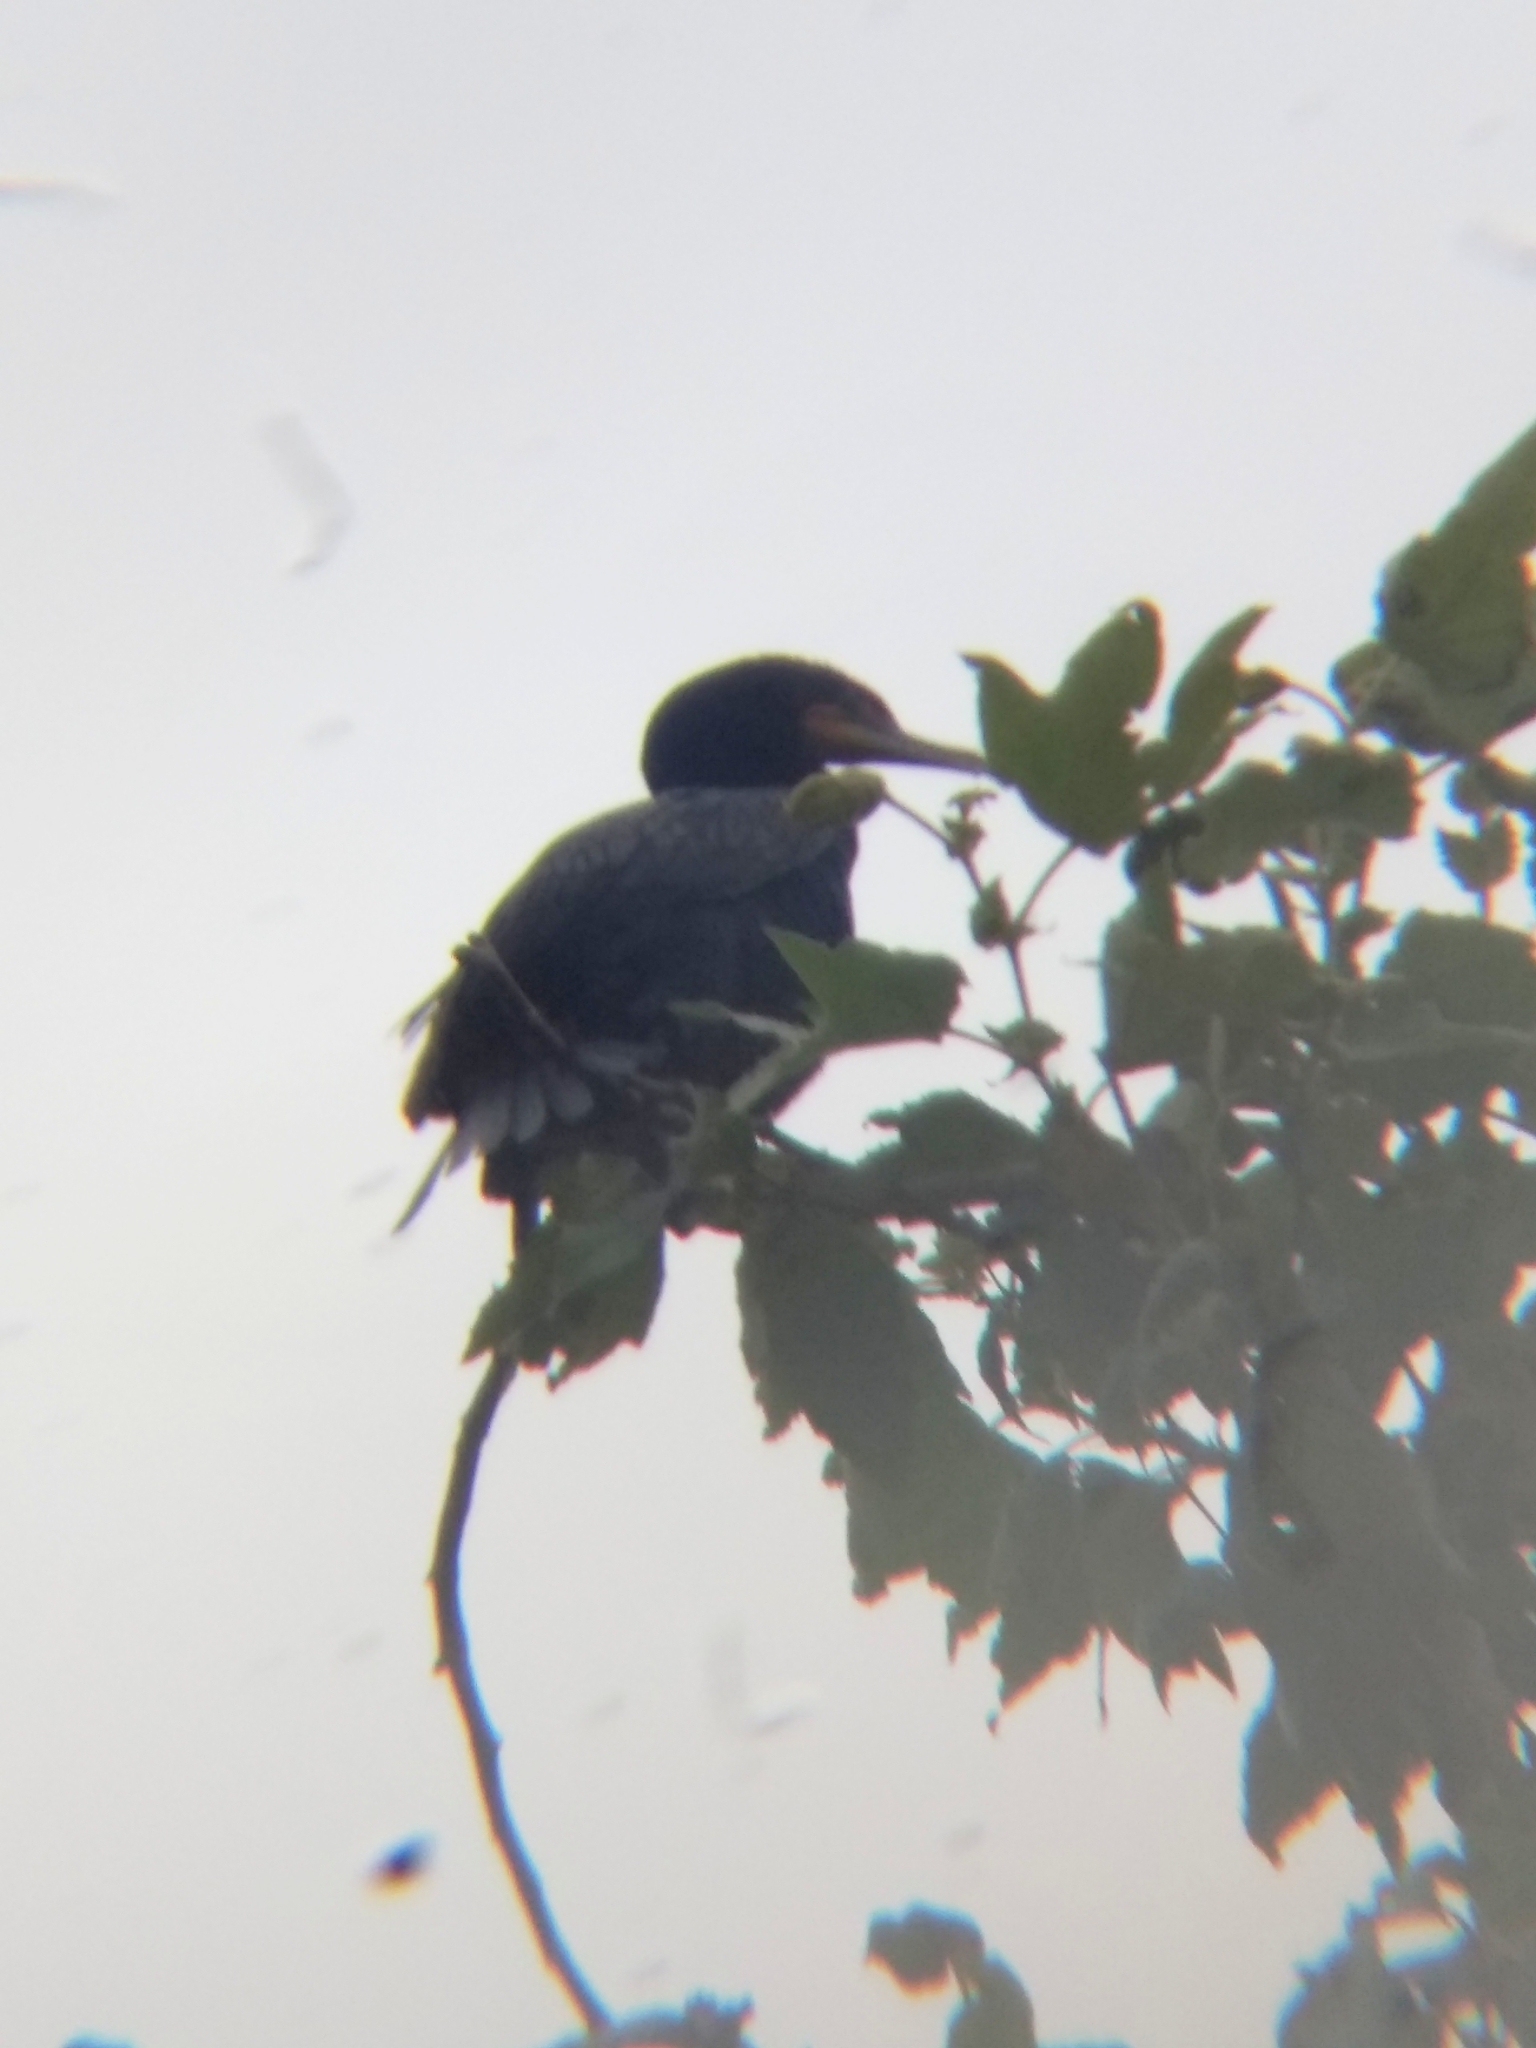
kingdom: Animalia
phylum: Chordata
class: Aves
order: Suliformes
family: Phalacrocoracidae
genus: Phalacrocorax
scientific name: Phalacrocorax auritus
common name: Double-crested cormorant
